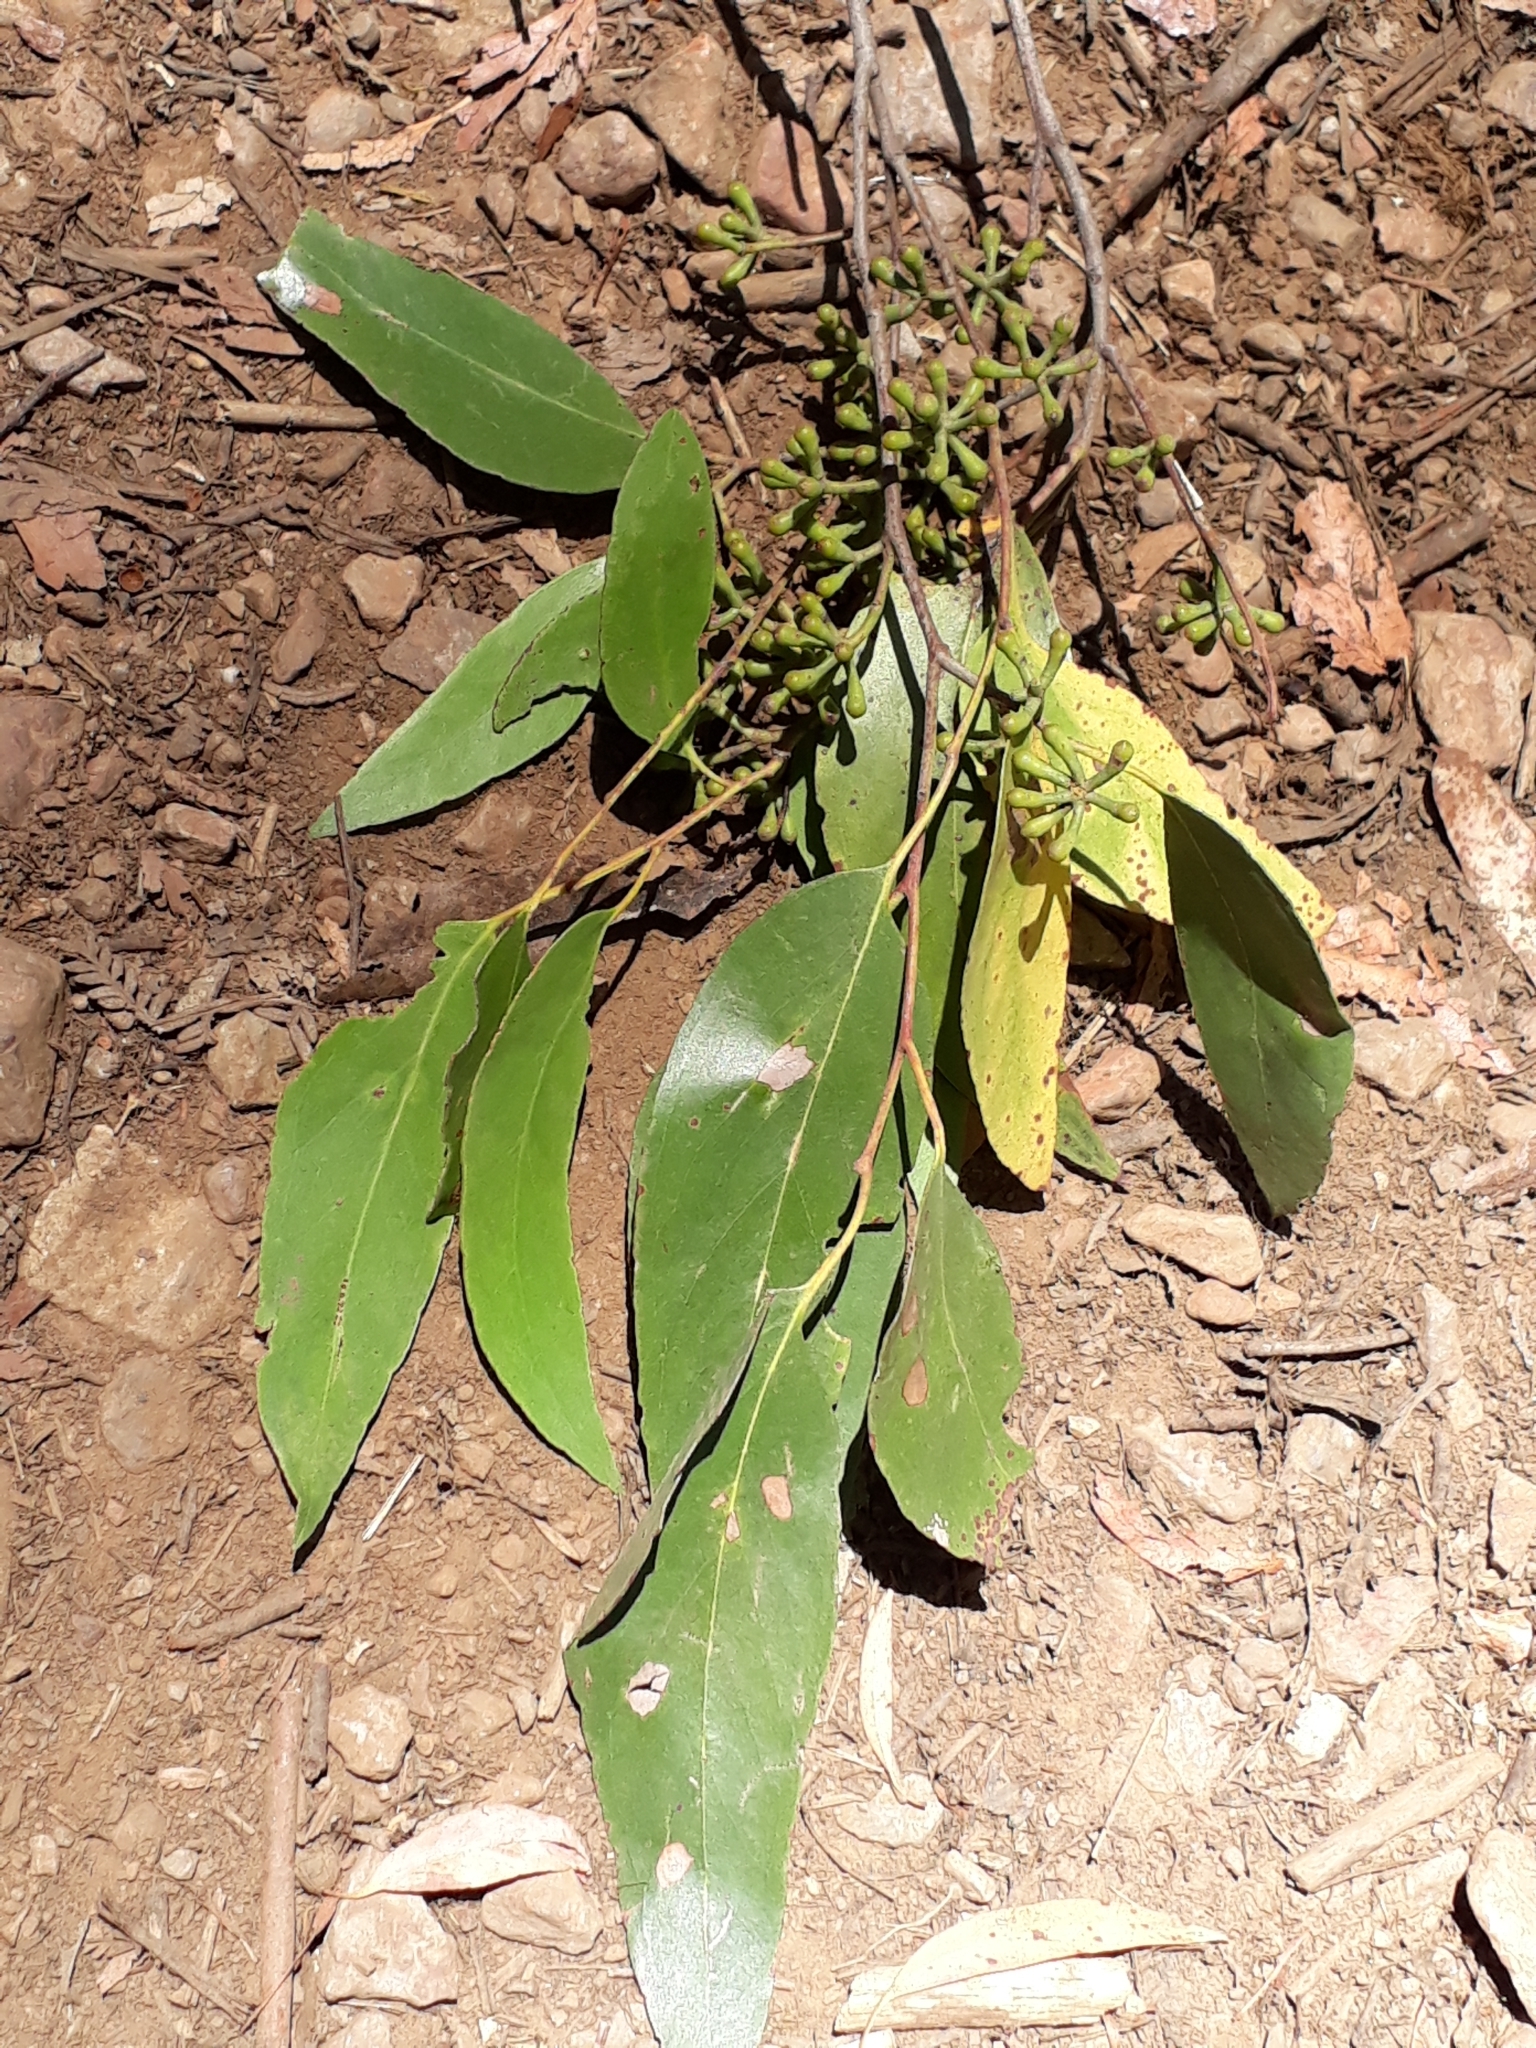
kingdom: Plantae
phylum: Tracheophyta
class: Magnoliopsida
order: Myrtales
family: Myrtaceae
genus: Eucalyptus
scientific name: Eucalyptus obliqua
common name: Messmate stringybark
